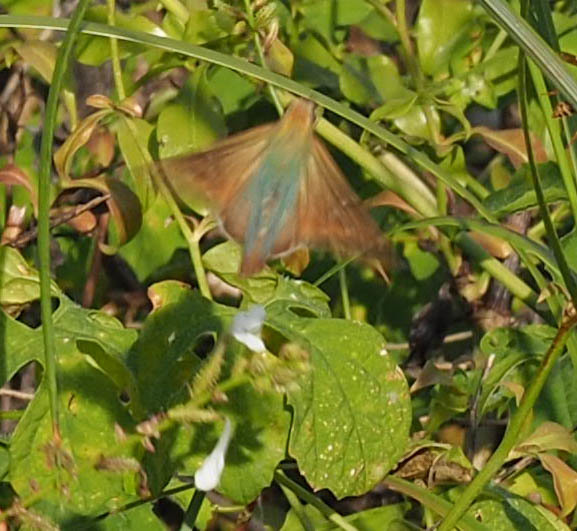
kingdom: Animalia
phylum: Arthropoda
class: Insecta
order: Lepidoptera
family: Hesperiidae
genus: Urbanus
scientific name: Urbanus proteus
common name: Long-tailed skipper
